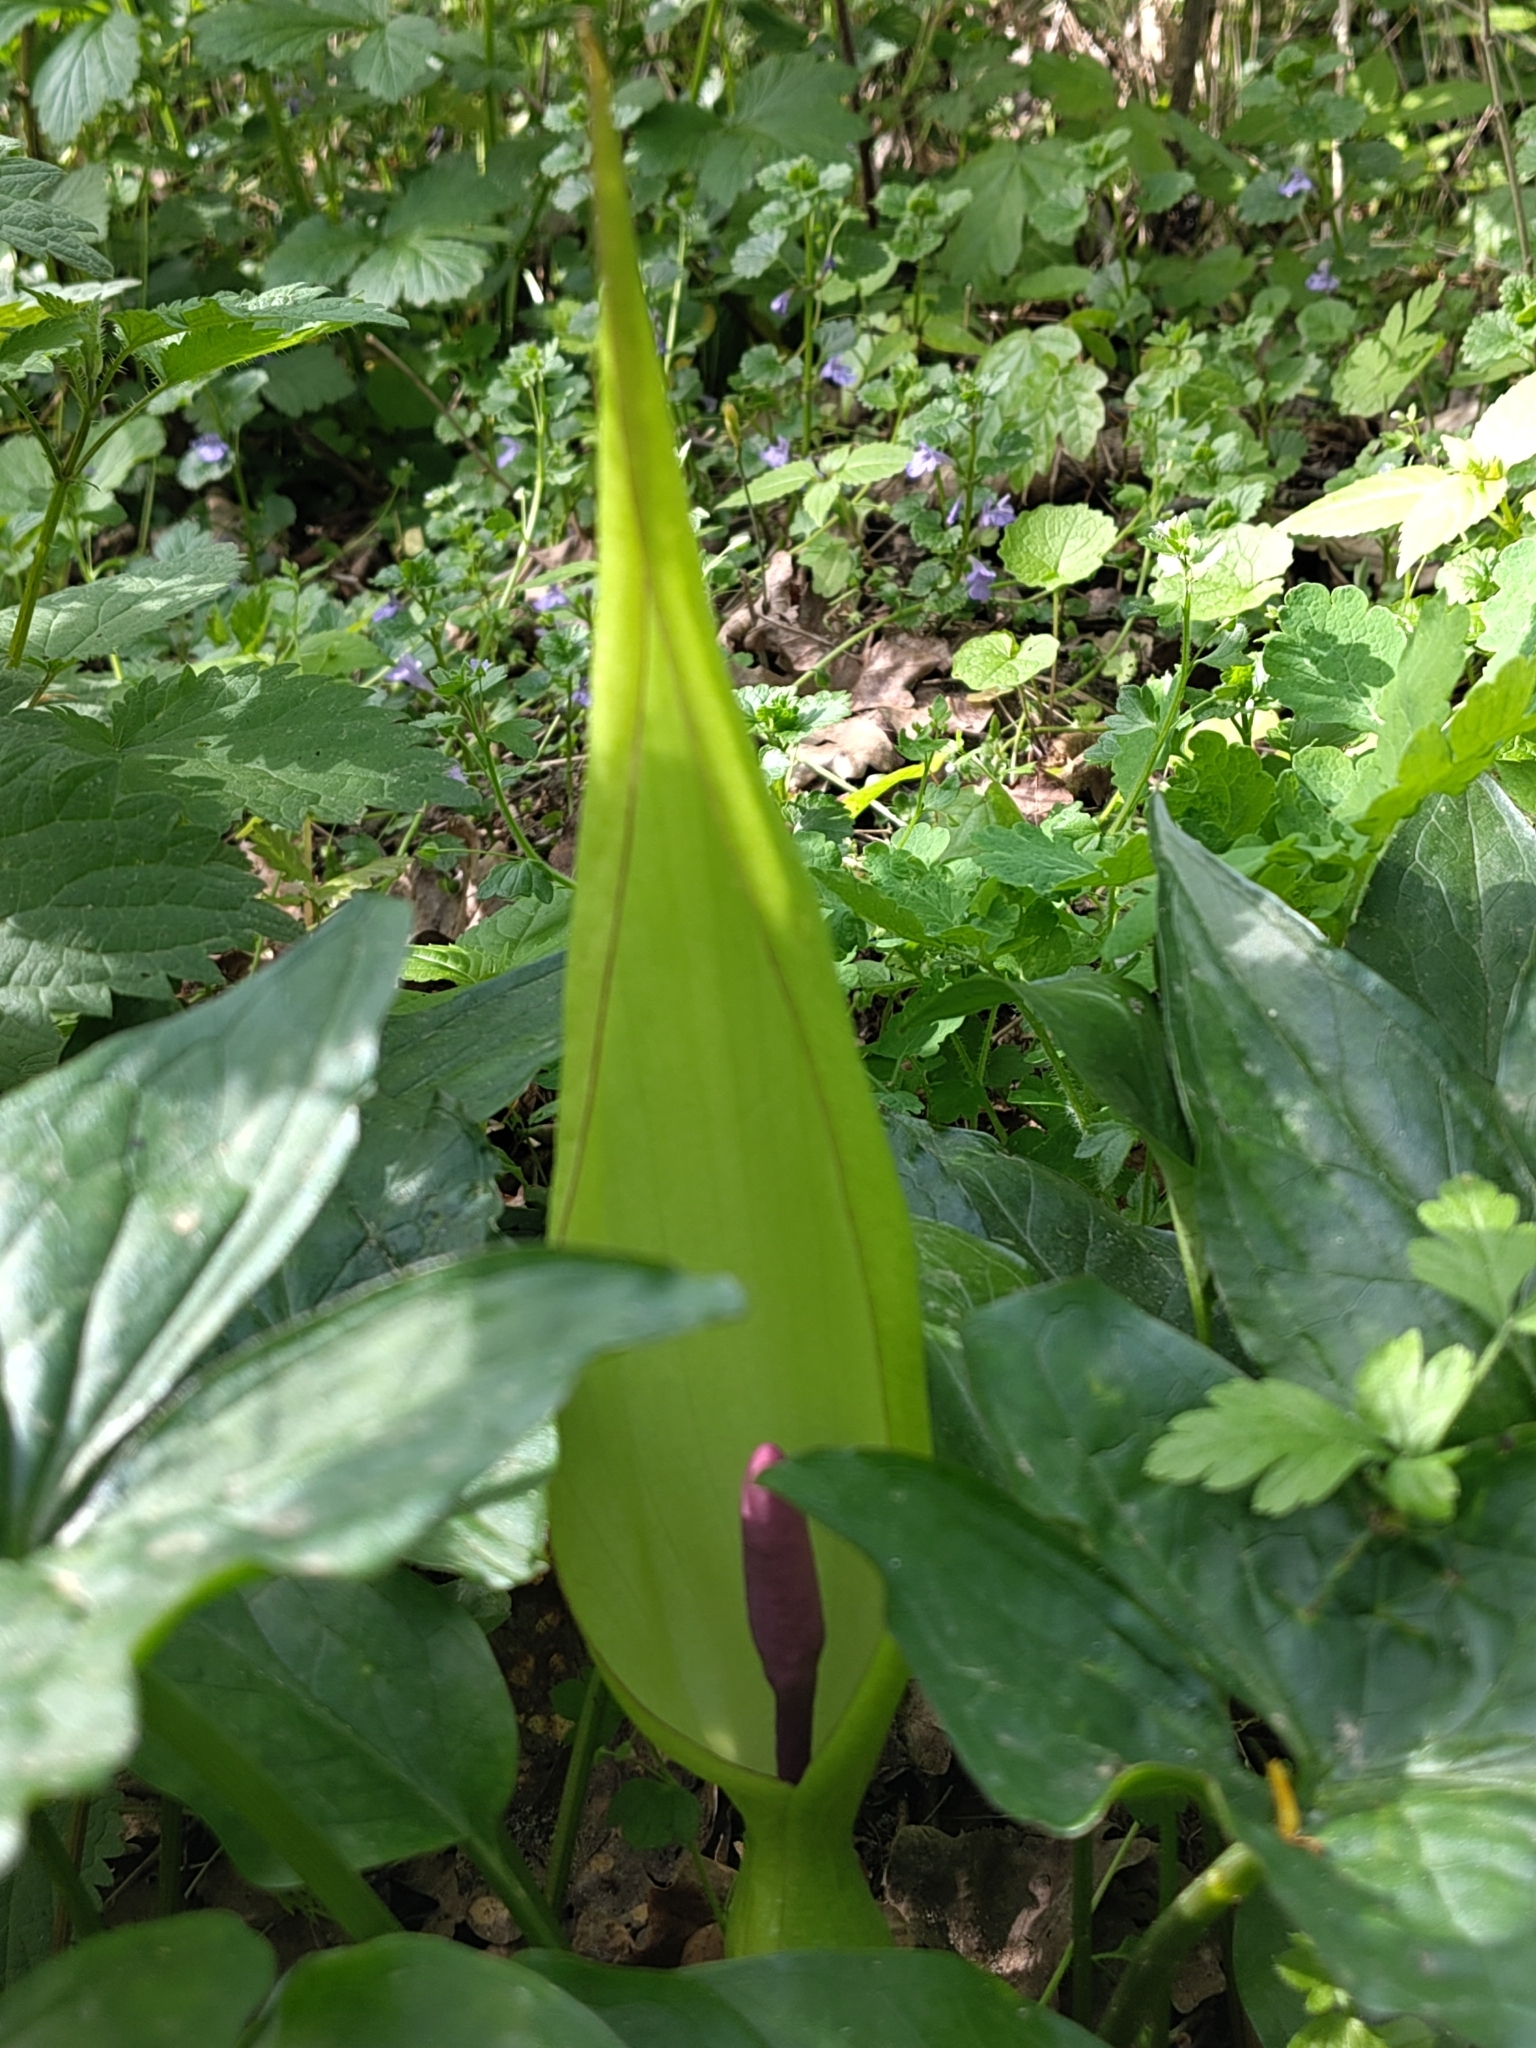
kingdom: Plantae
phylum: Tracheophyta
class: Liliopsida
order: Alismatales
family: Araceae
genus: Arum
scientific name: Arum maculatum
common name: Lords-and-ladies
